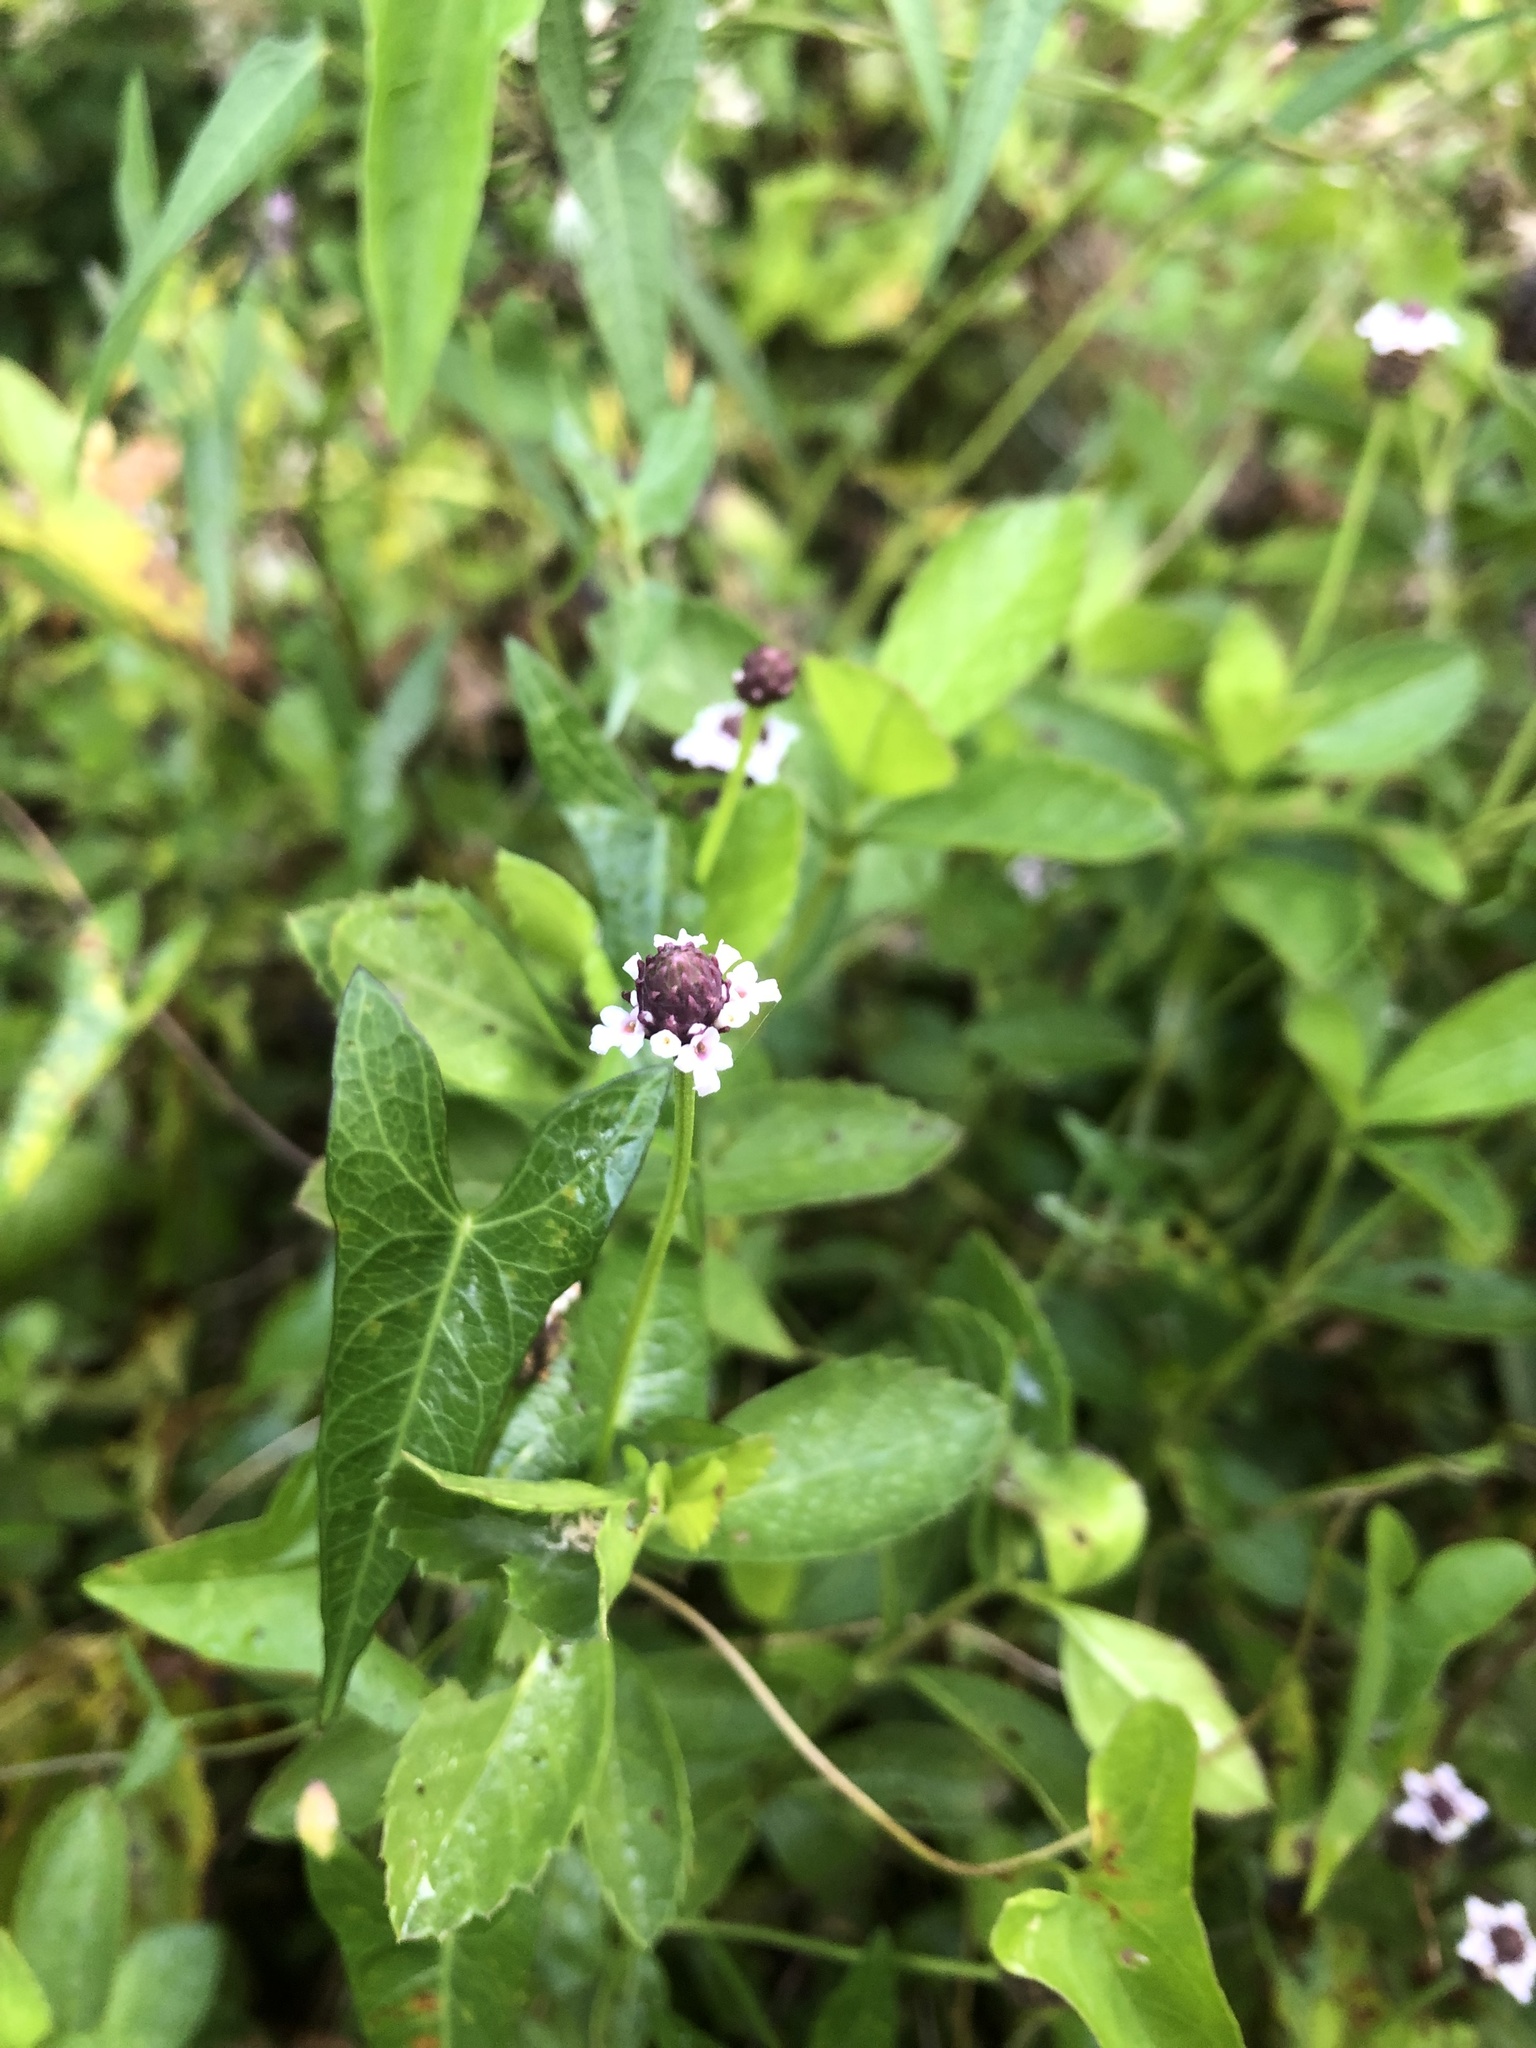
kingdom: Plantae
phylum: Tracheophyta
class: Magnoliopsida
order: Lamiales
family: Verbenaceae
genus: Phyla
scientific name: Phyla nodiflora
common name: Frogfruit
